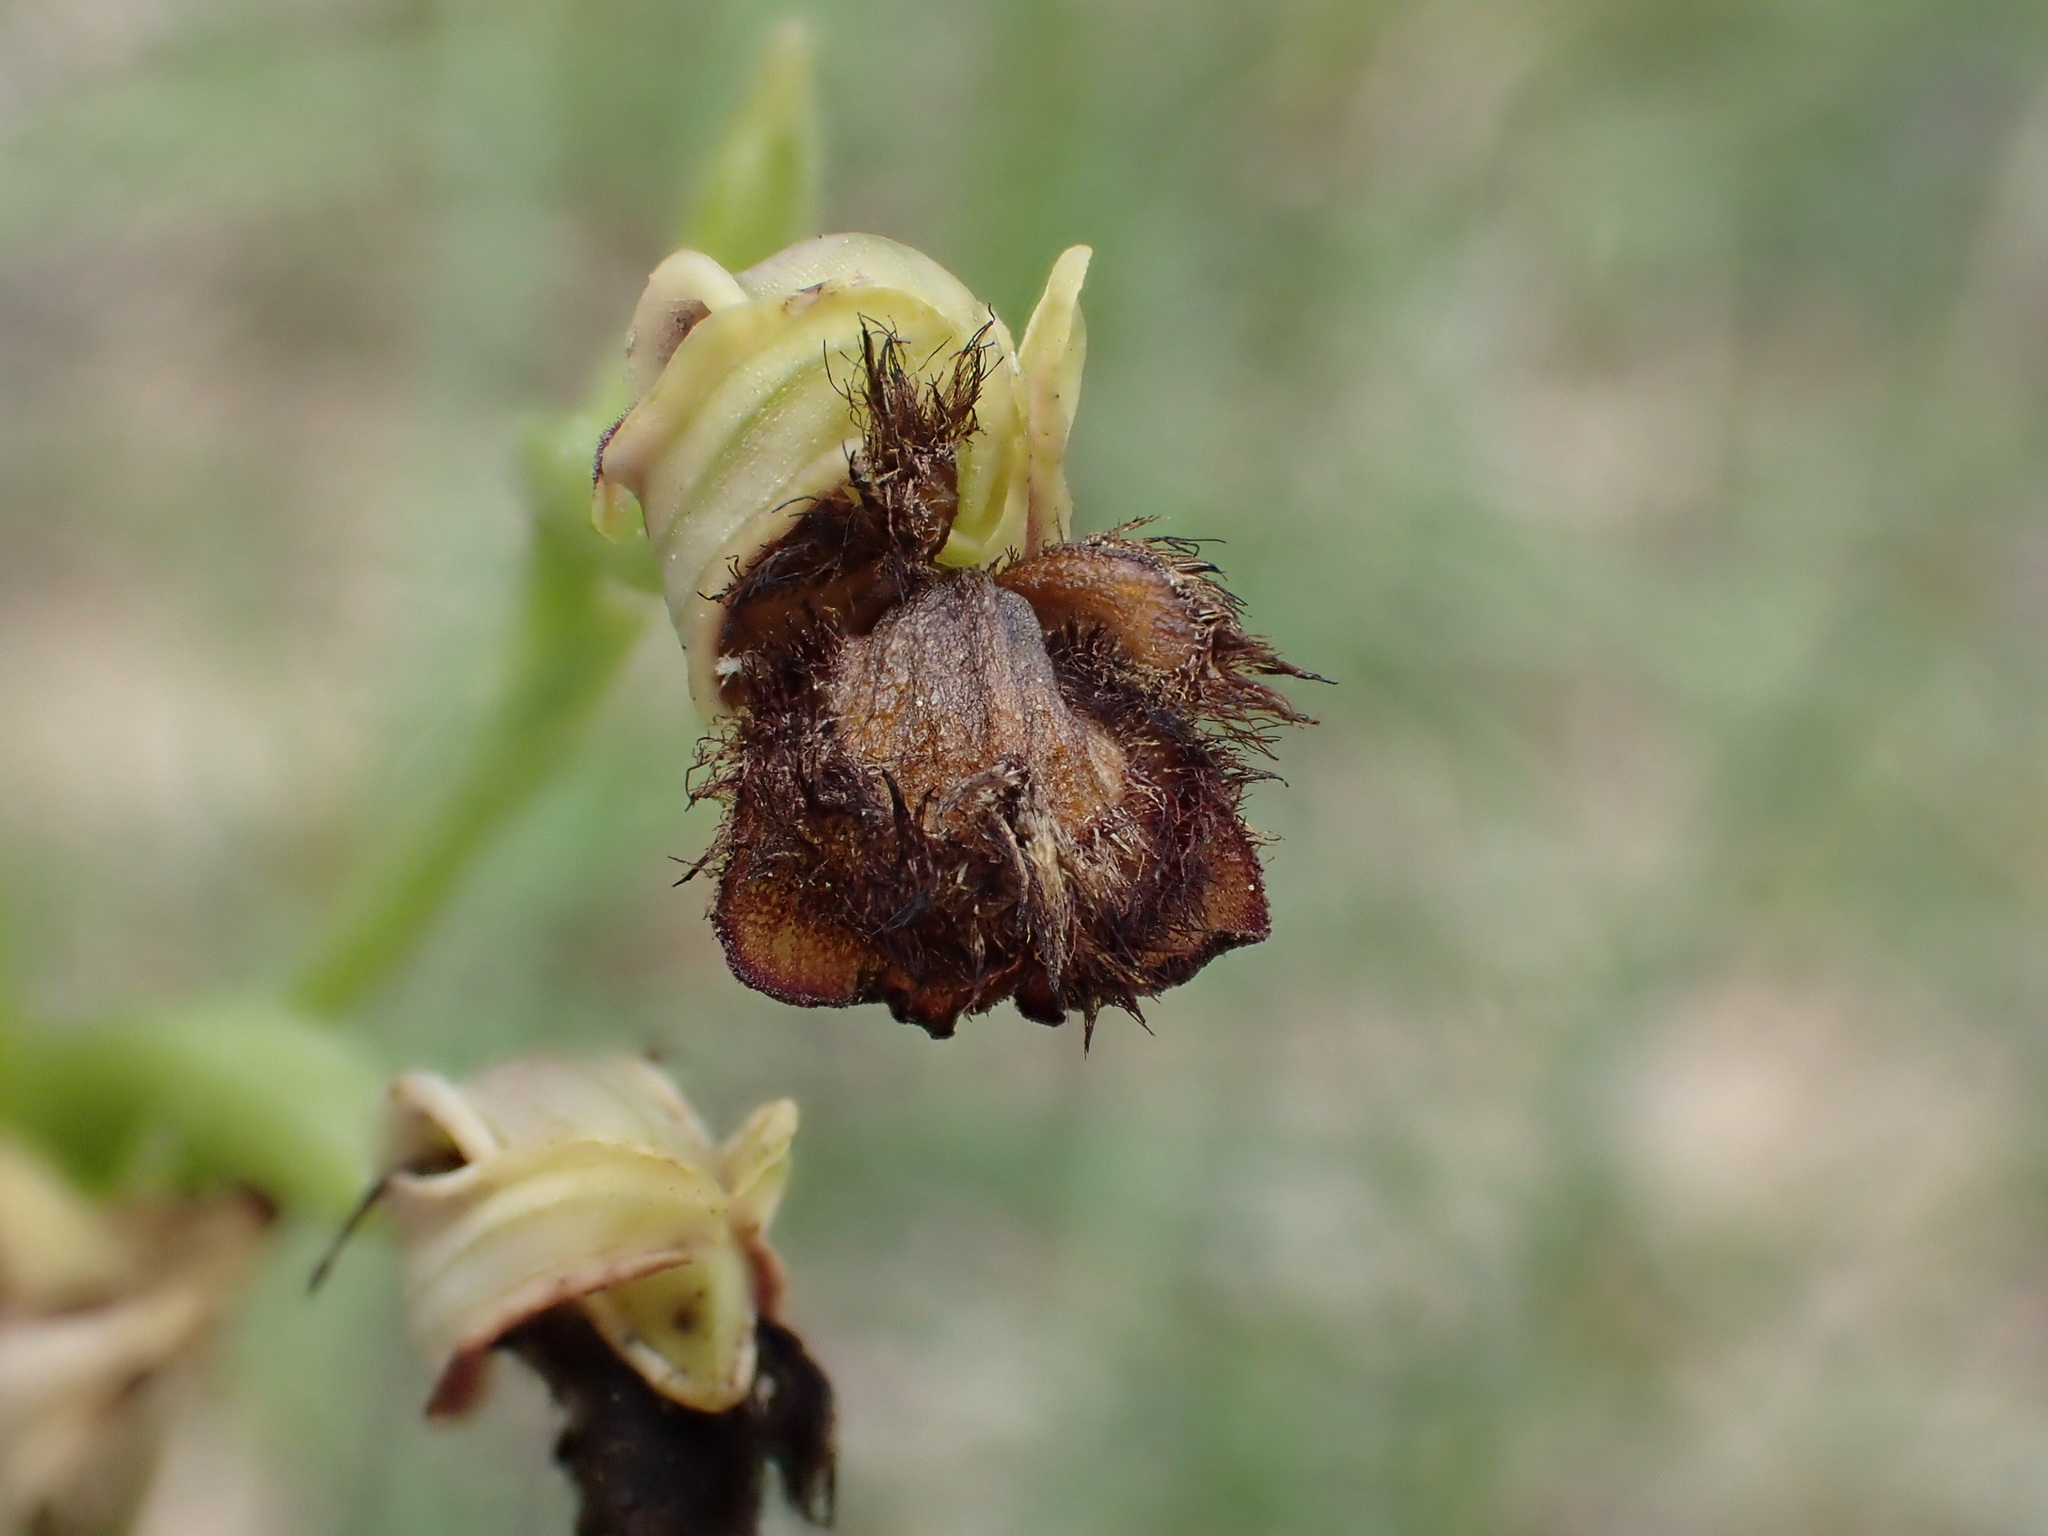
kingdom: Plantae
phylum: Tracheophyta
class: Liliopsida
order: Asparagales
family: Orchidaceae
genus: Ophrys
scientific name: Ophrys speculum
